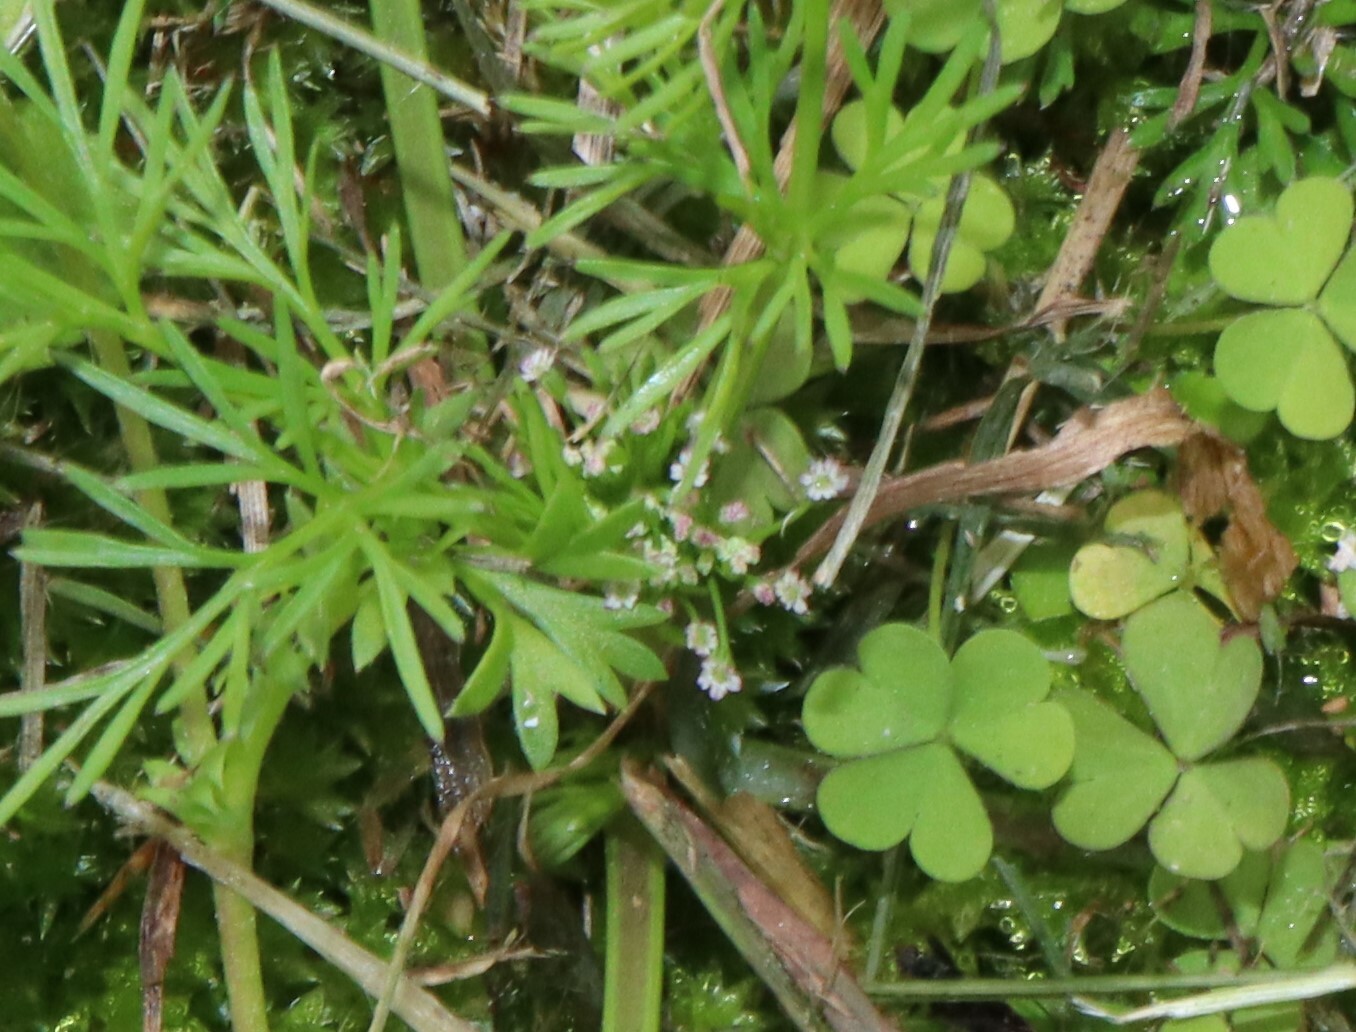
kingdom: Plantae
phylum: Tracheophyta
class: Magnoliopsida
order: Apiales
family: Apiaceae
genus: Cyclospermum
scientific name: Cyclospermum leptophyllum
